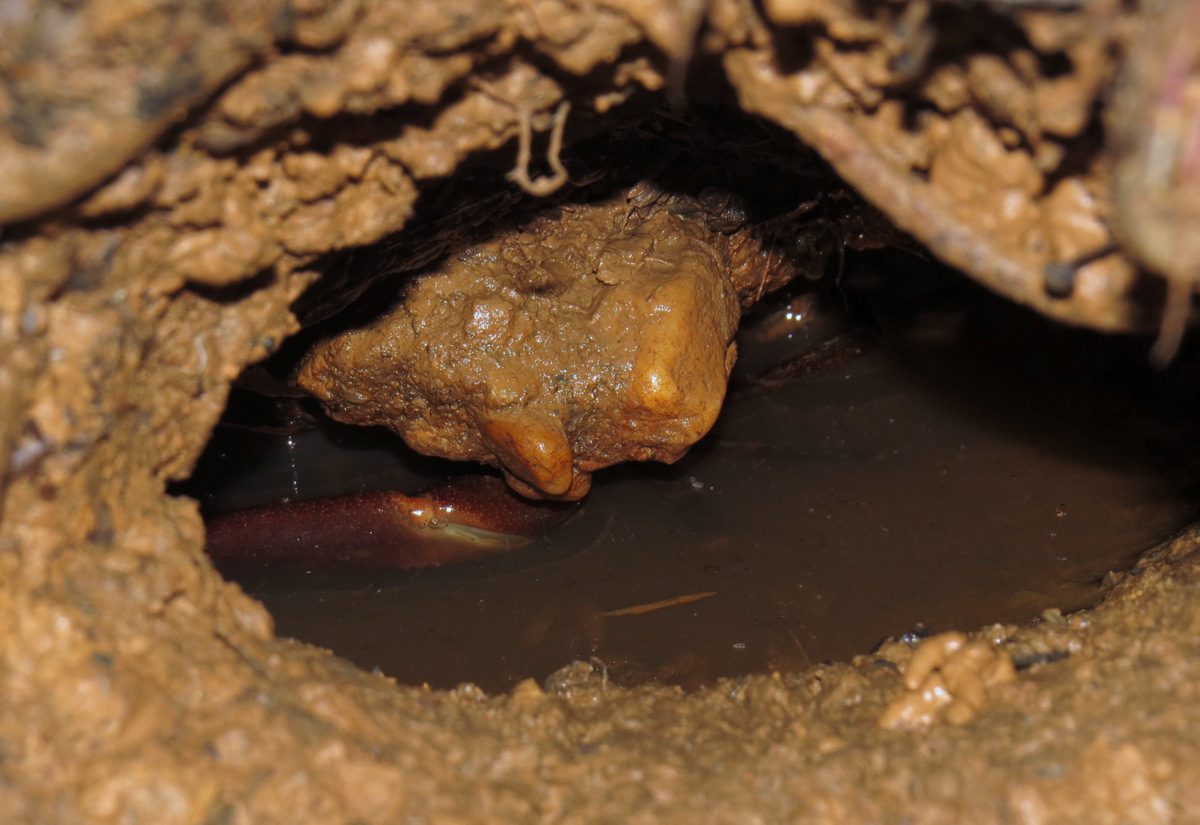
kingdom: Animalia
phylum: Arthropoda
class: Malacostraca
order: Decapoda
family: Pseudothelphusidae
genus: Rodriguezus
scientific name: Rodriguezus garmani
